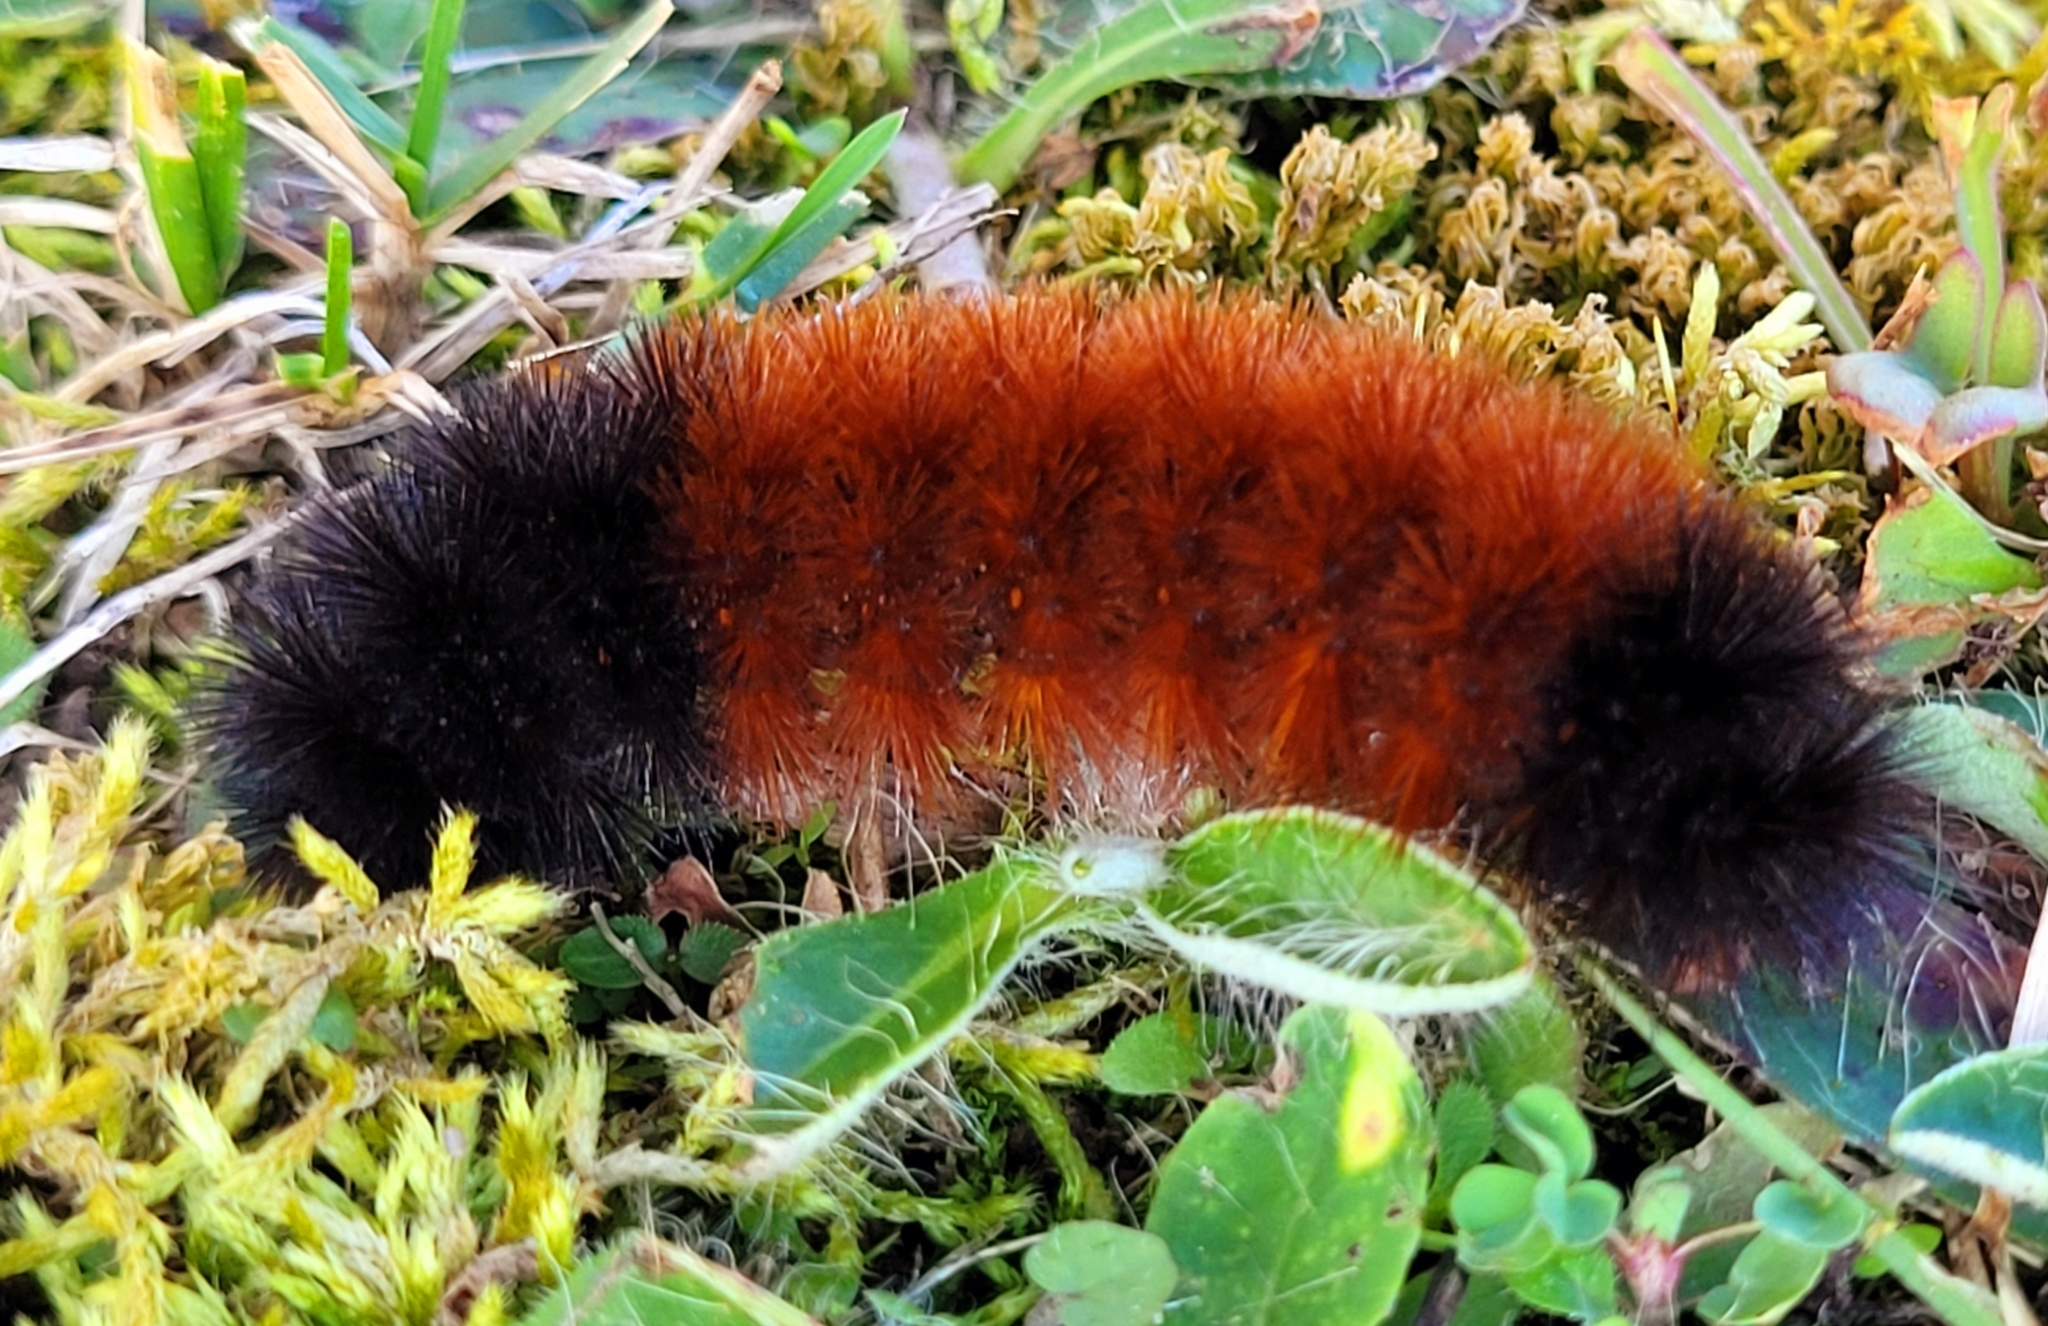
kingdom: Animalia
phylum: Arthropoda
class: Insecta
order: Lepidoptera
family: Erebidae
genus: Pyrrharctia
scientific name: Pyrrharctia isabella
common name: Isabella tiger moth
